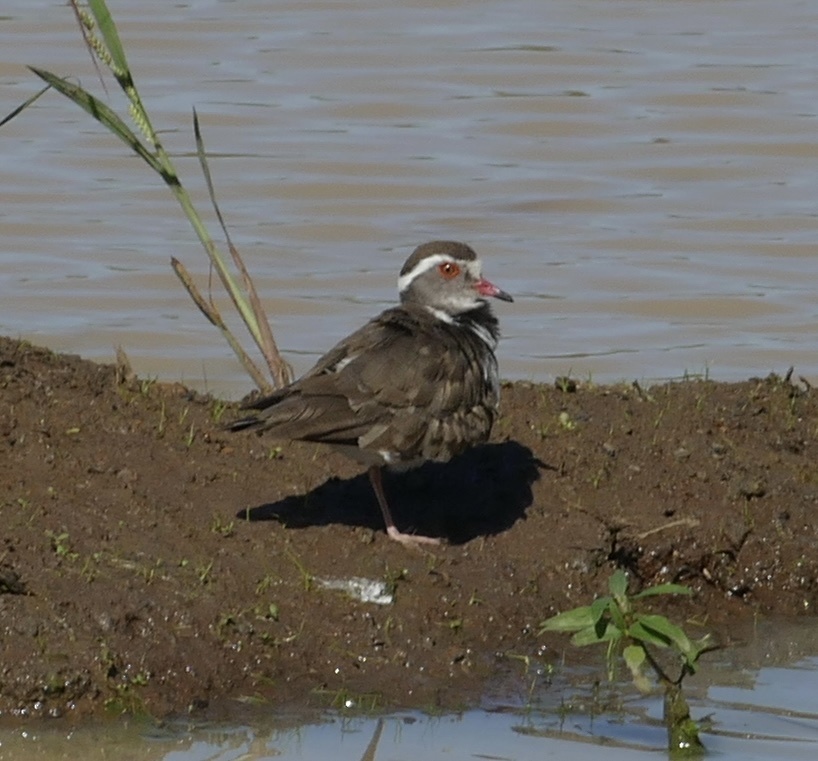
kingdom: Animalia
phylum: Chordata
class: Aves
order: Charadriiformes
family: Charadriidae
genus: Charadrius
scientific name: Charadrius tricollaris
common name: Three-banded plover
